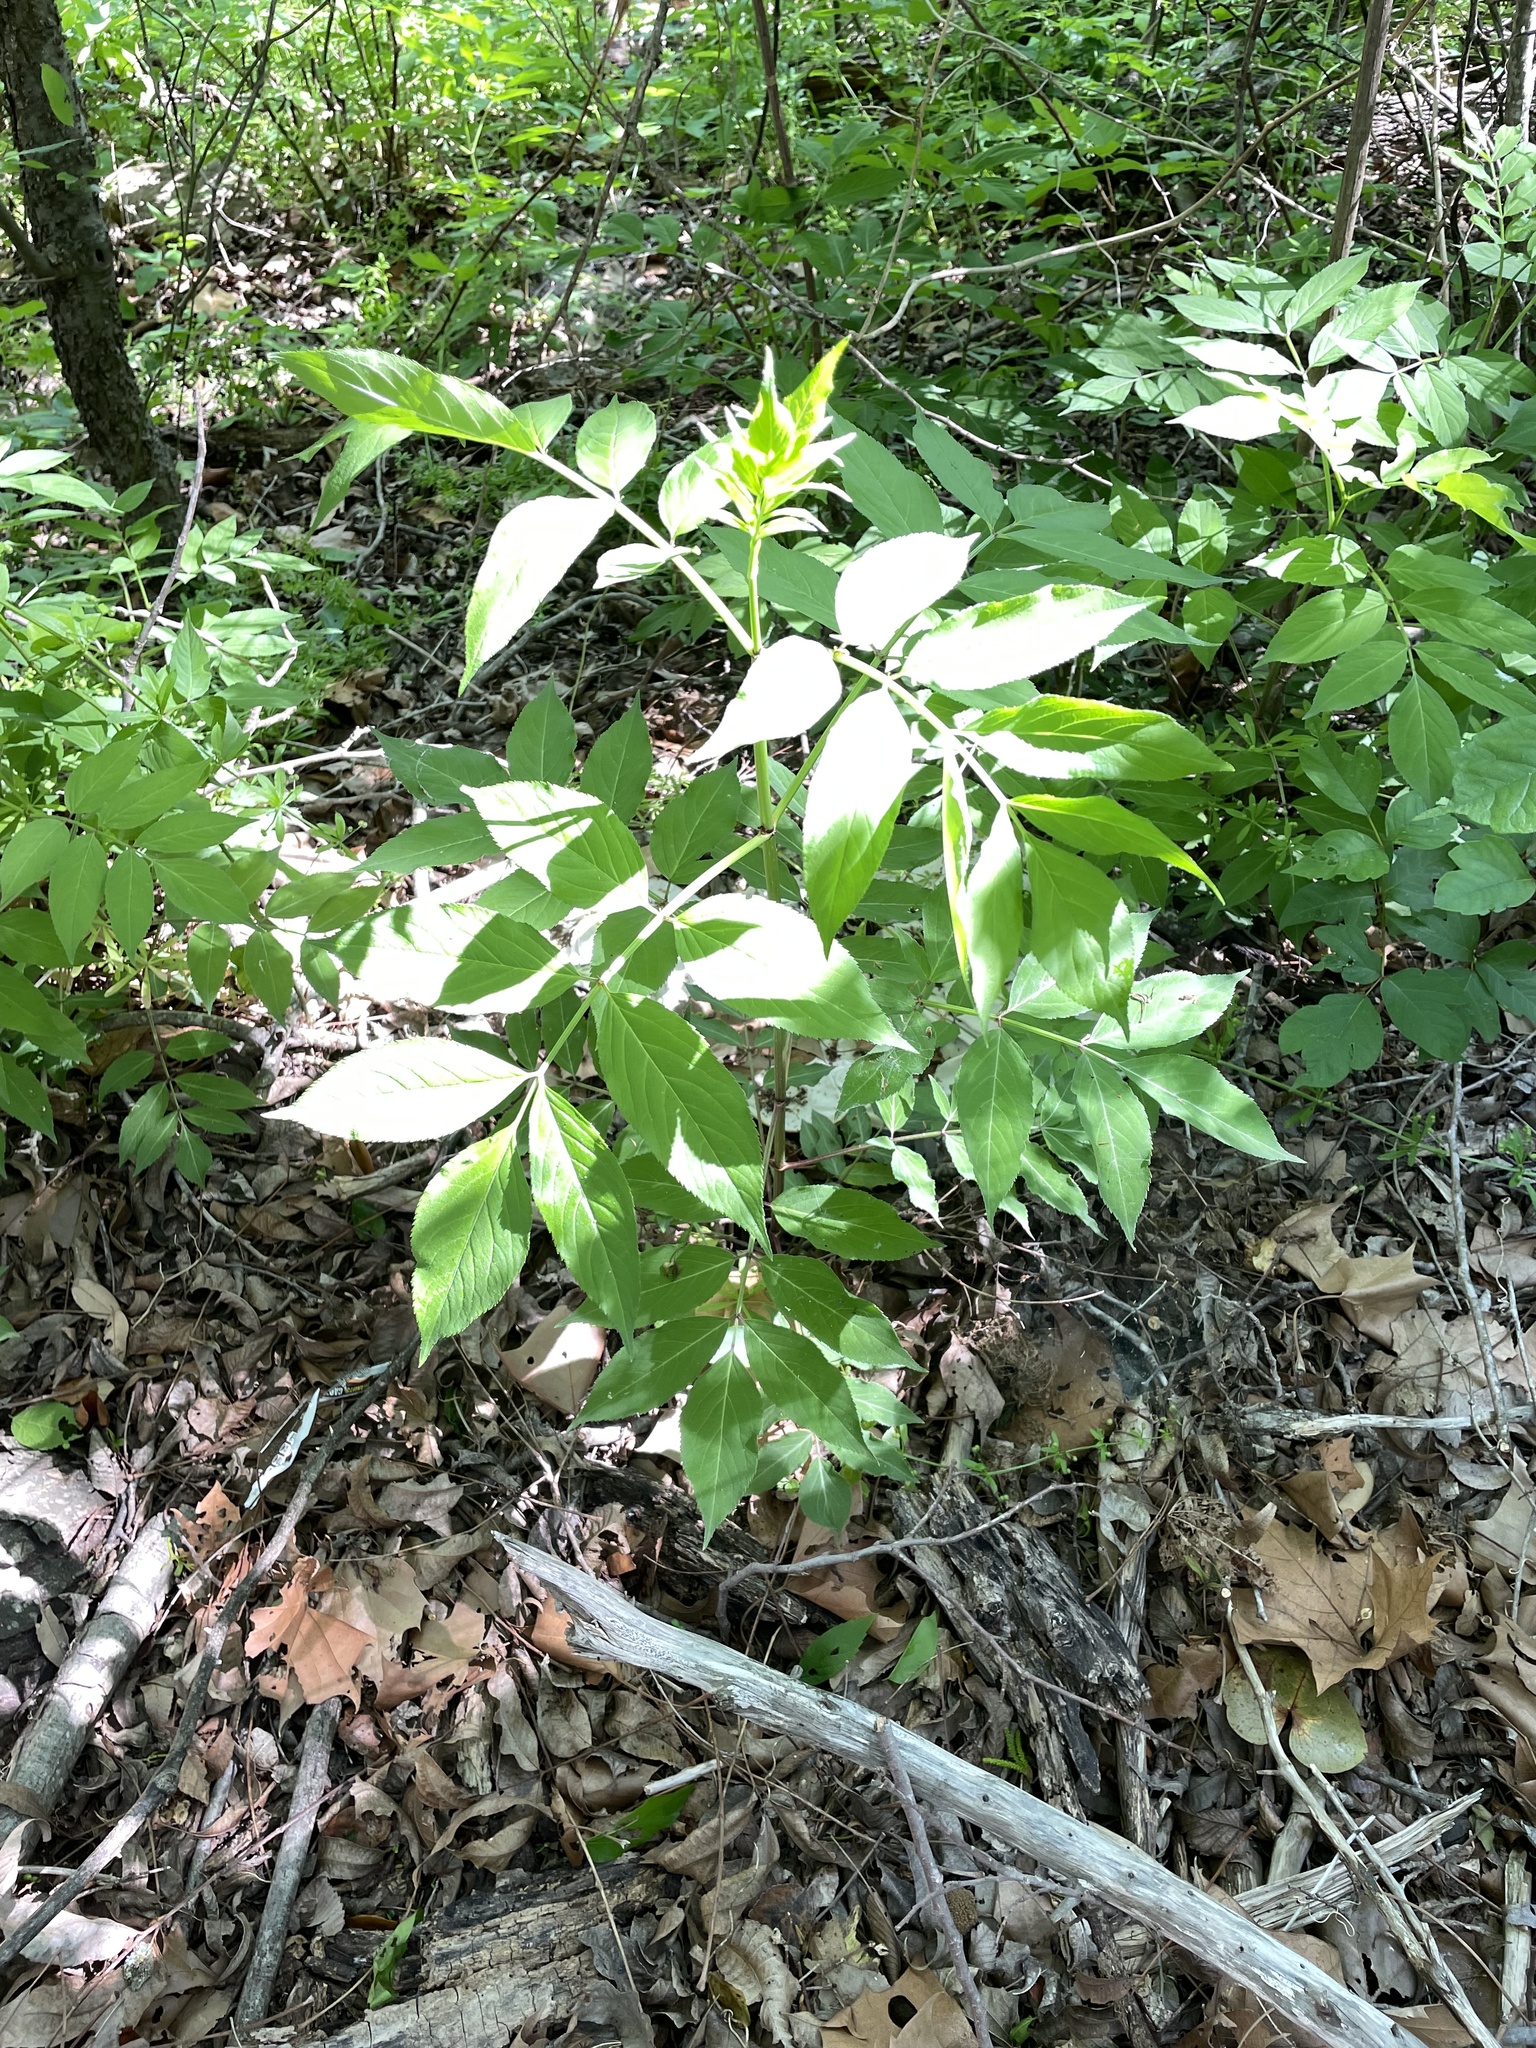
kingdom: Plantae
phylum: Tracheophyta
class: Magnoliopsida
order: Dipsacales
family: Viburnaceae
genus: Sambucus
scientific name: Sambucus canadensis
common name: American elder
